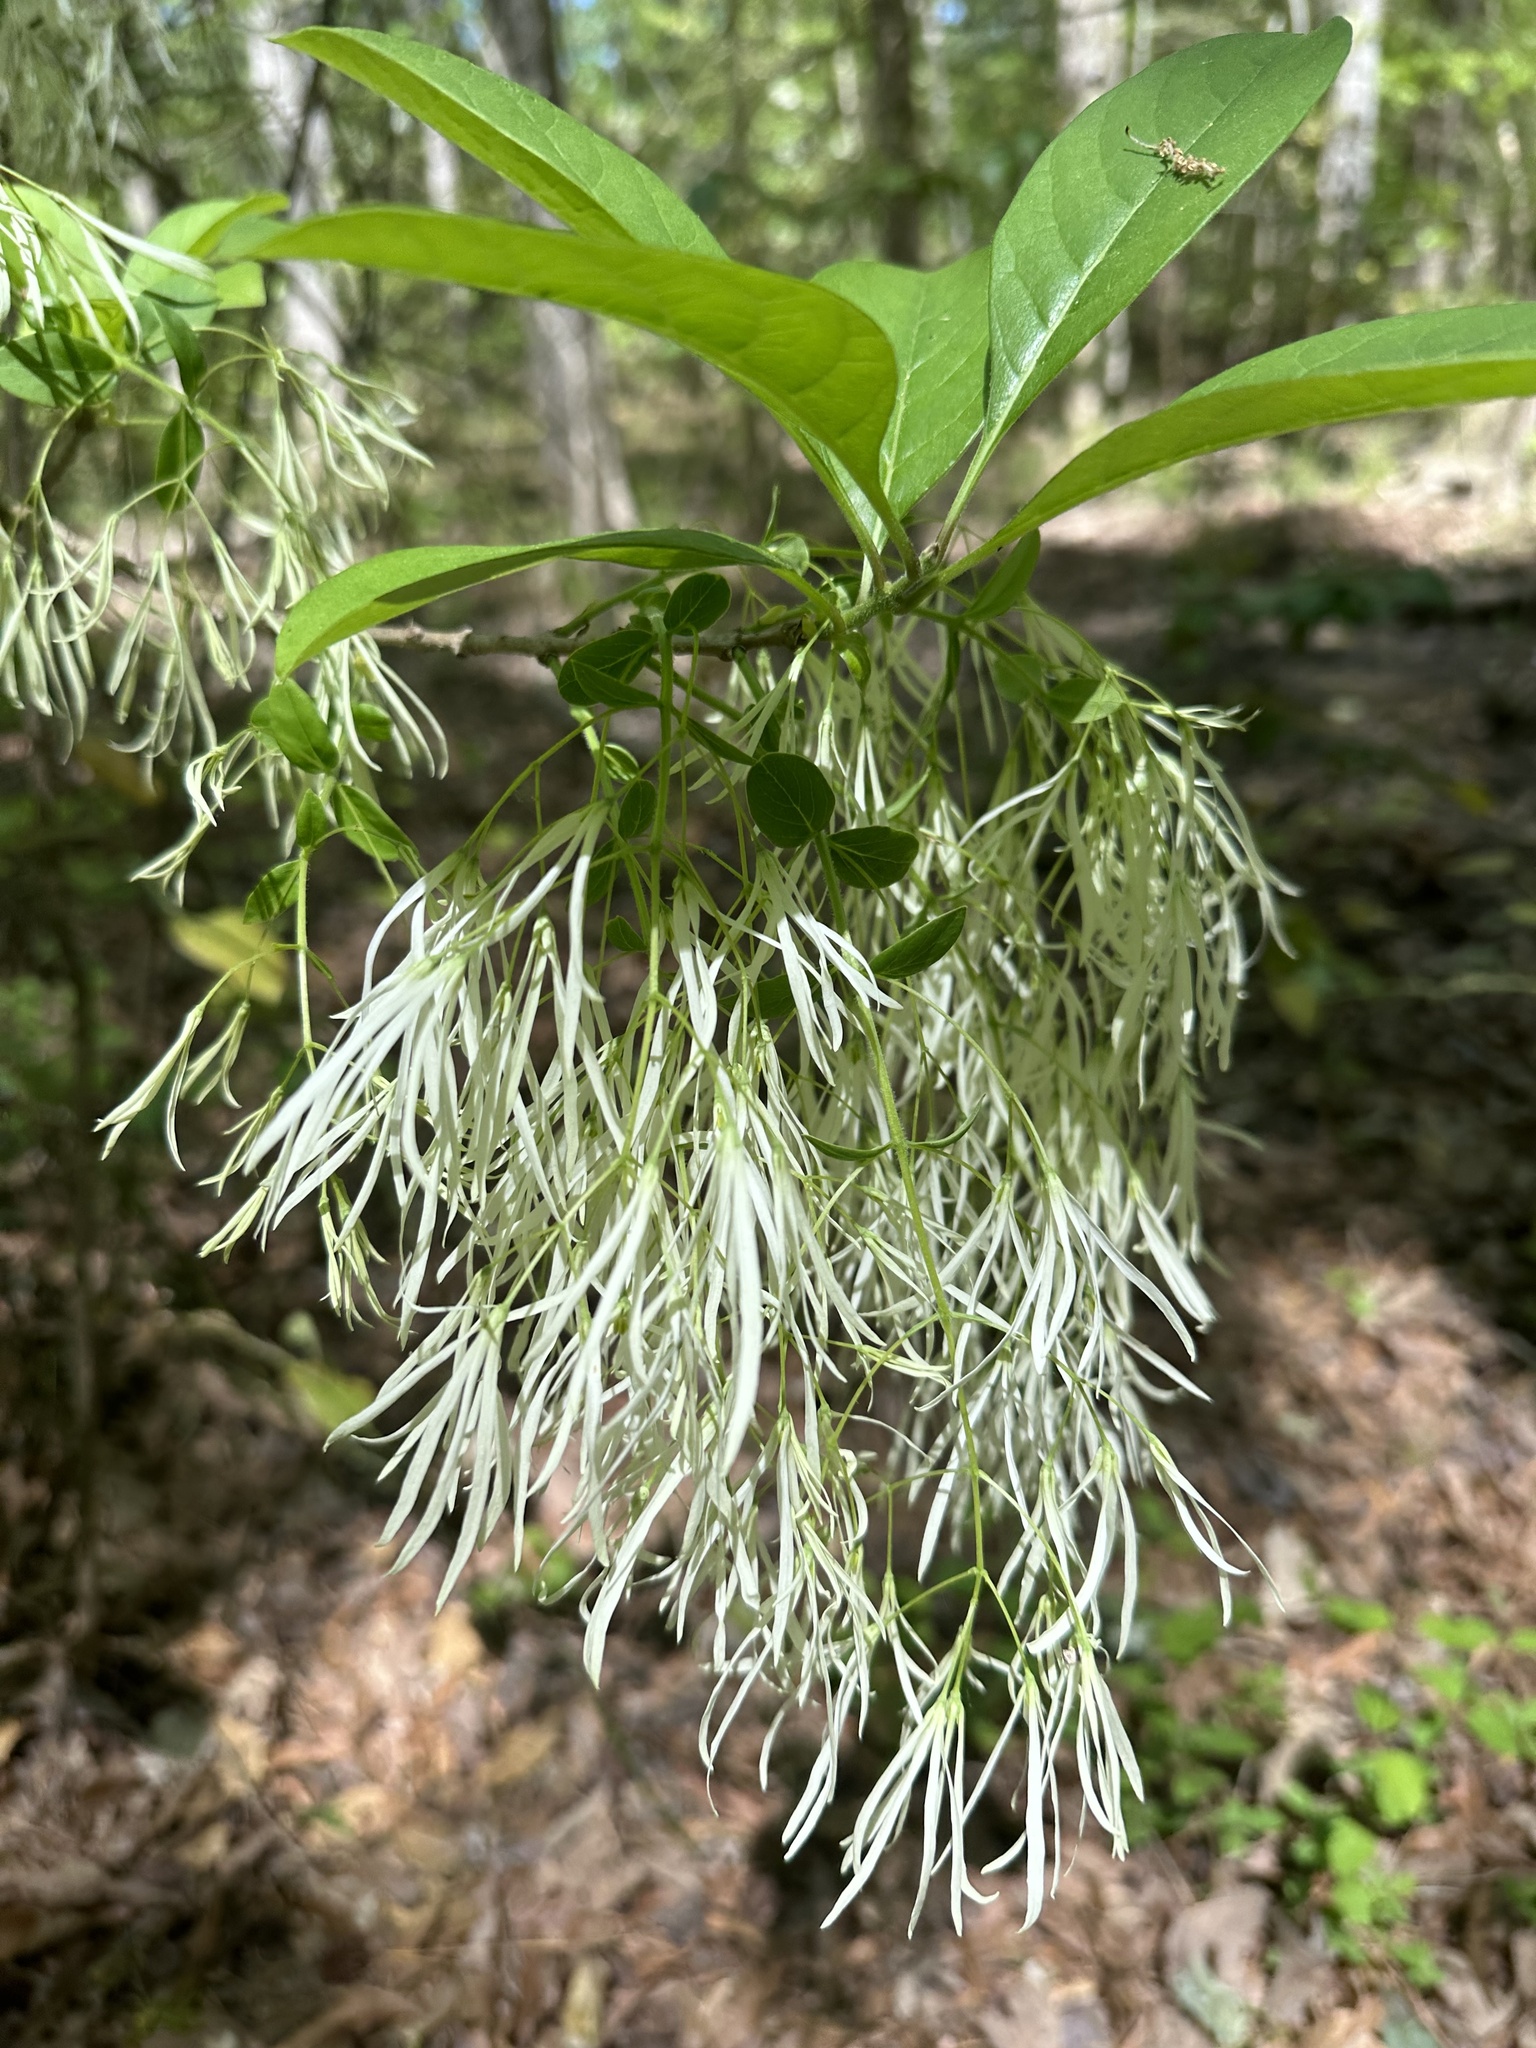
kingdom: Plantae
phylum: Tracheophyta
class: Magnoliopsida
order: Lamiales
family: Oleaceae
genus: Chionanthus
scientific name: Chionanthus virginicus
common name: American fringetree
